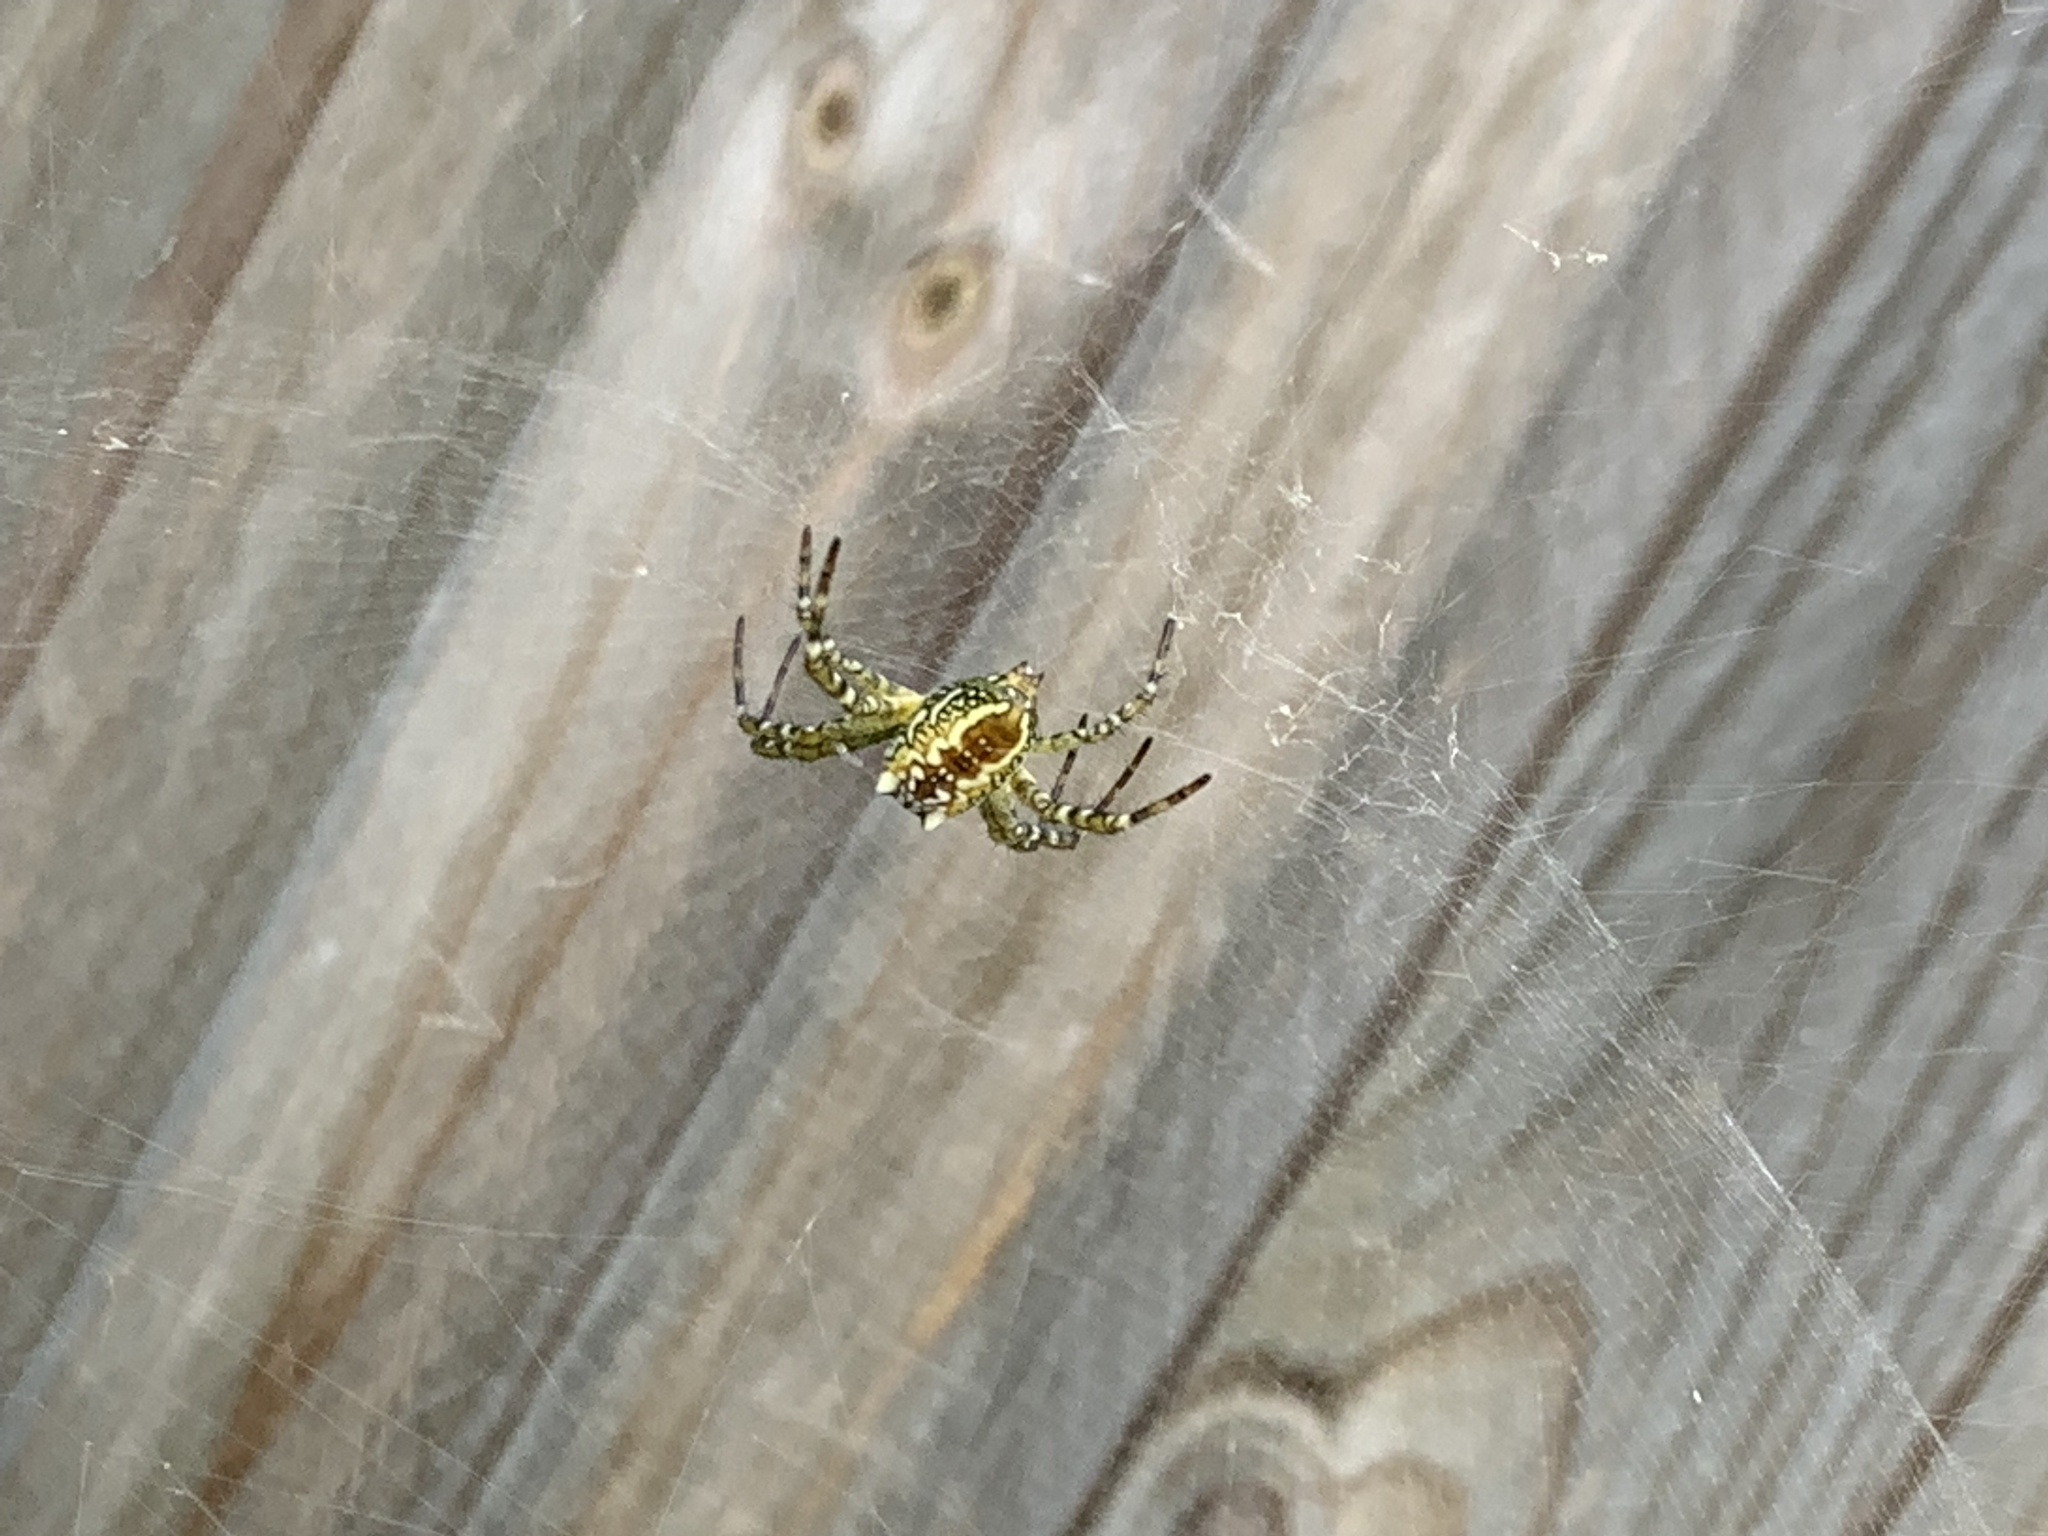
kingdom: Chromista
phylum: Ochrophyta
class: Dictyochophyceae
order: Pedinellales
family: Cyrtophoraceae
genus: Cyrtophora
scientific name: Cyrtophora moluccensis
